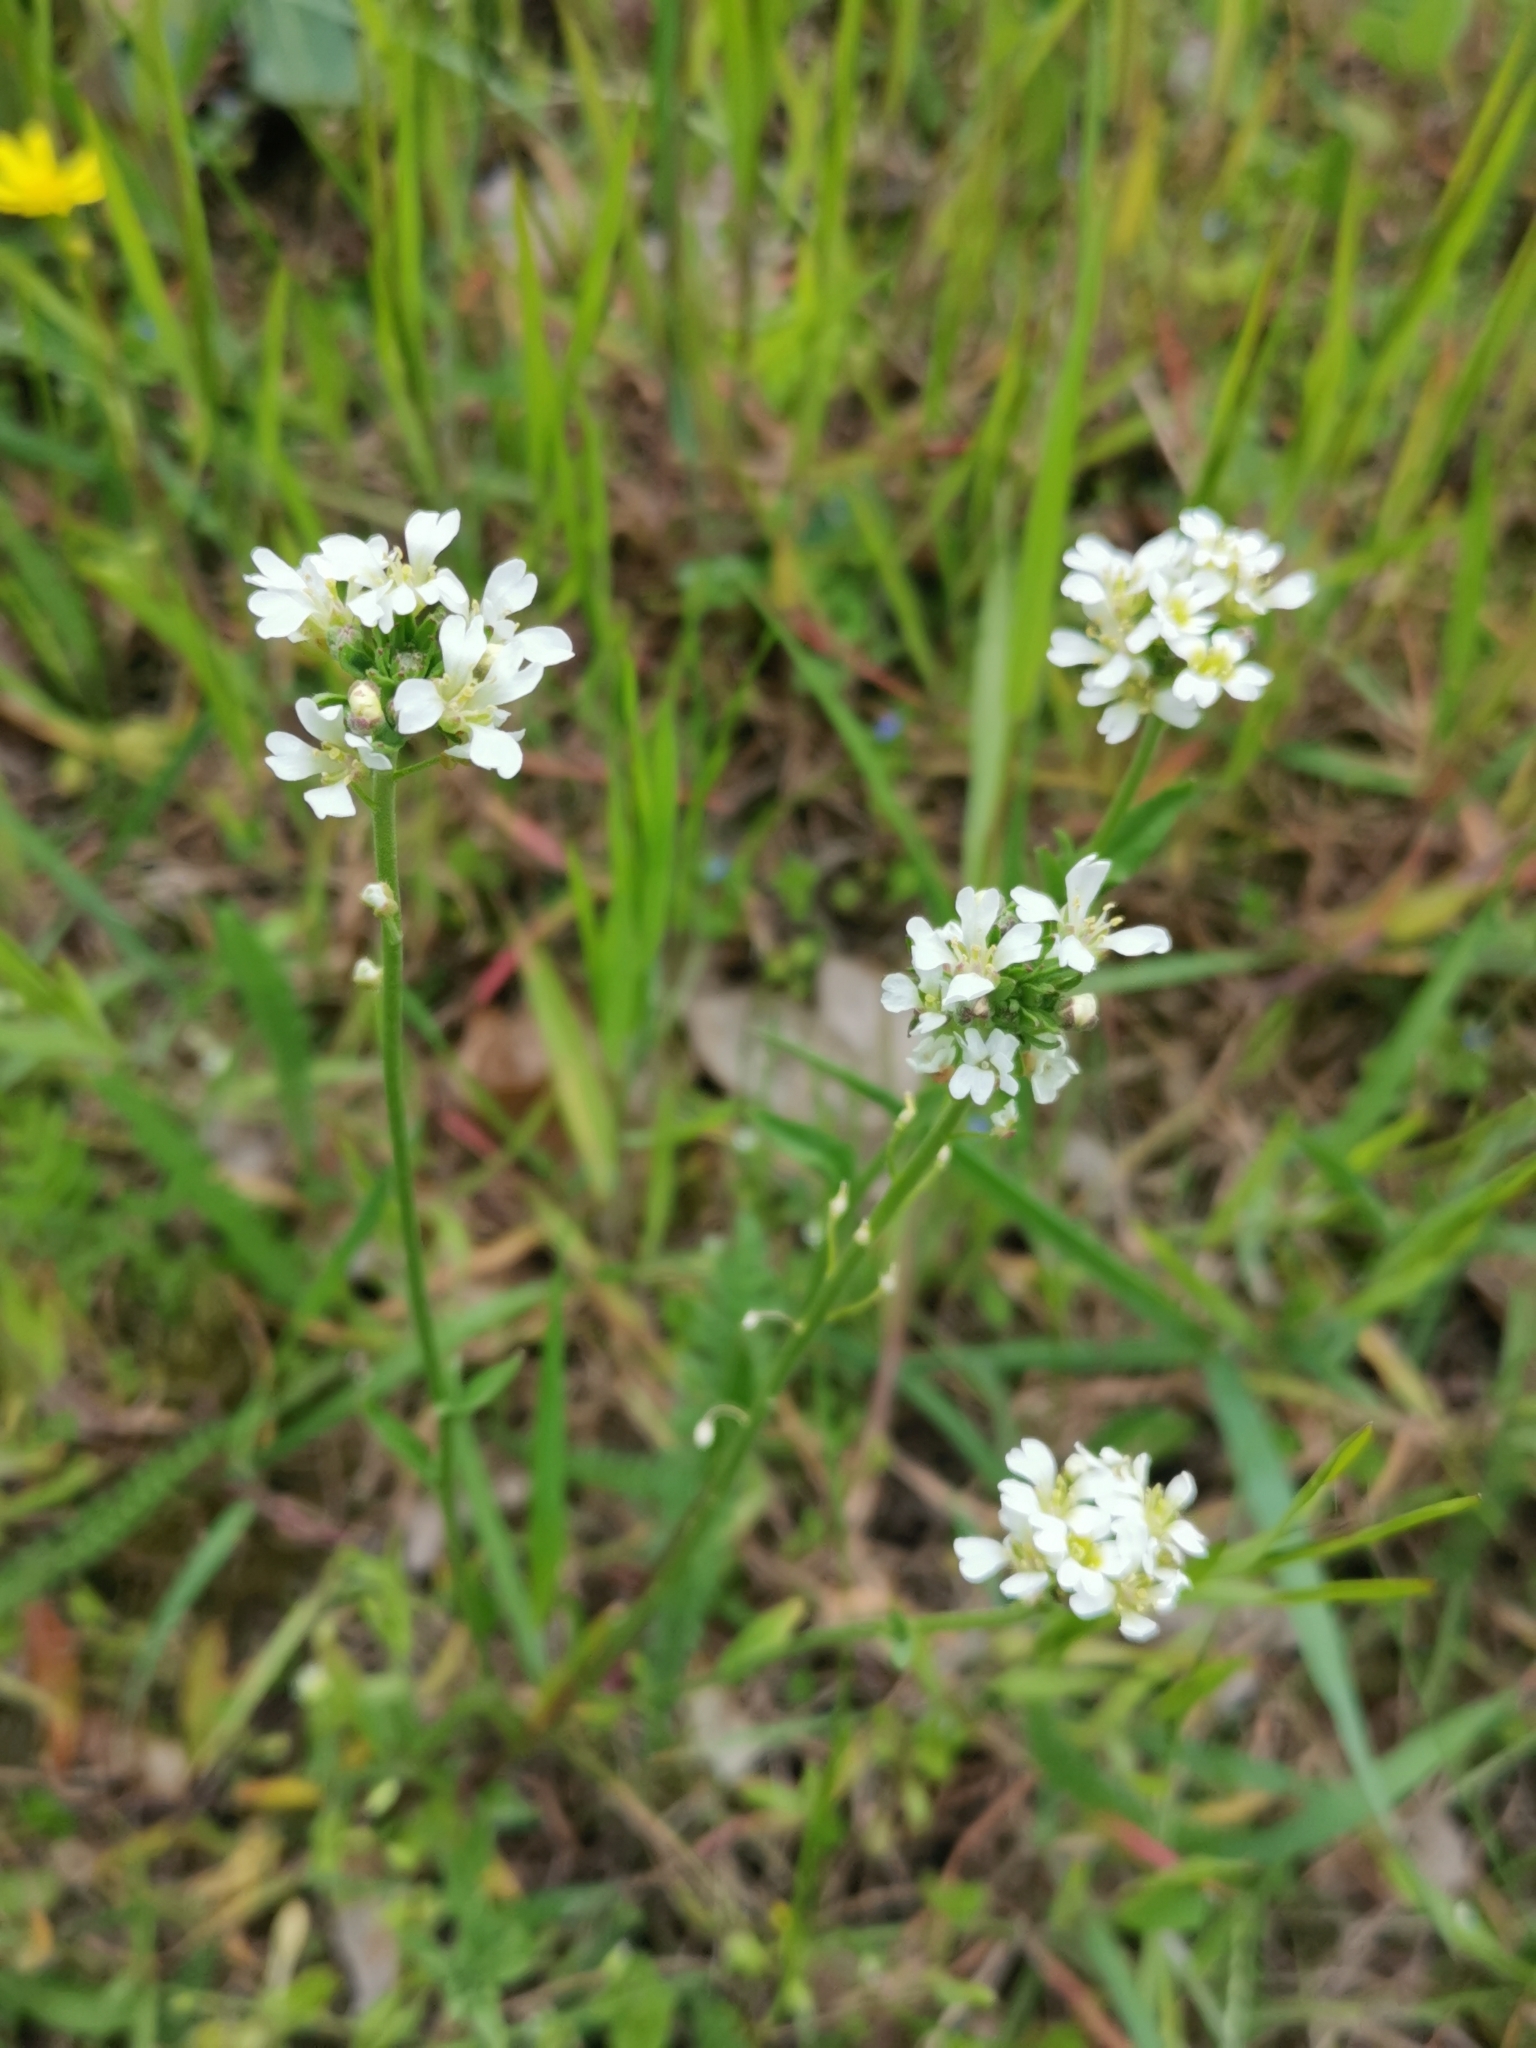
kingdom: Plantae
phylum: Tracheophyta
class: Magnoliopsida
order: Brassicales
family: Brassicaceae
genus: Berteroa
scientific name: Berteroa incana
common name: Hoary alison
